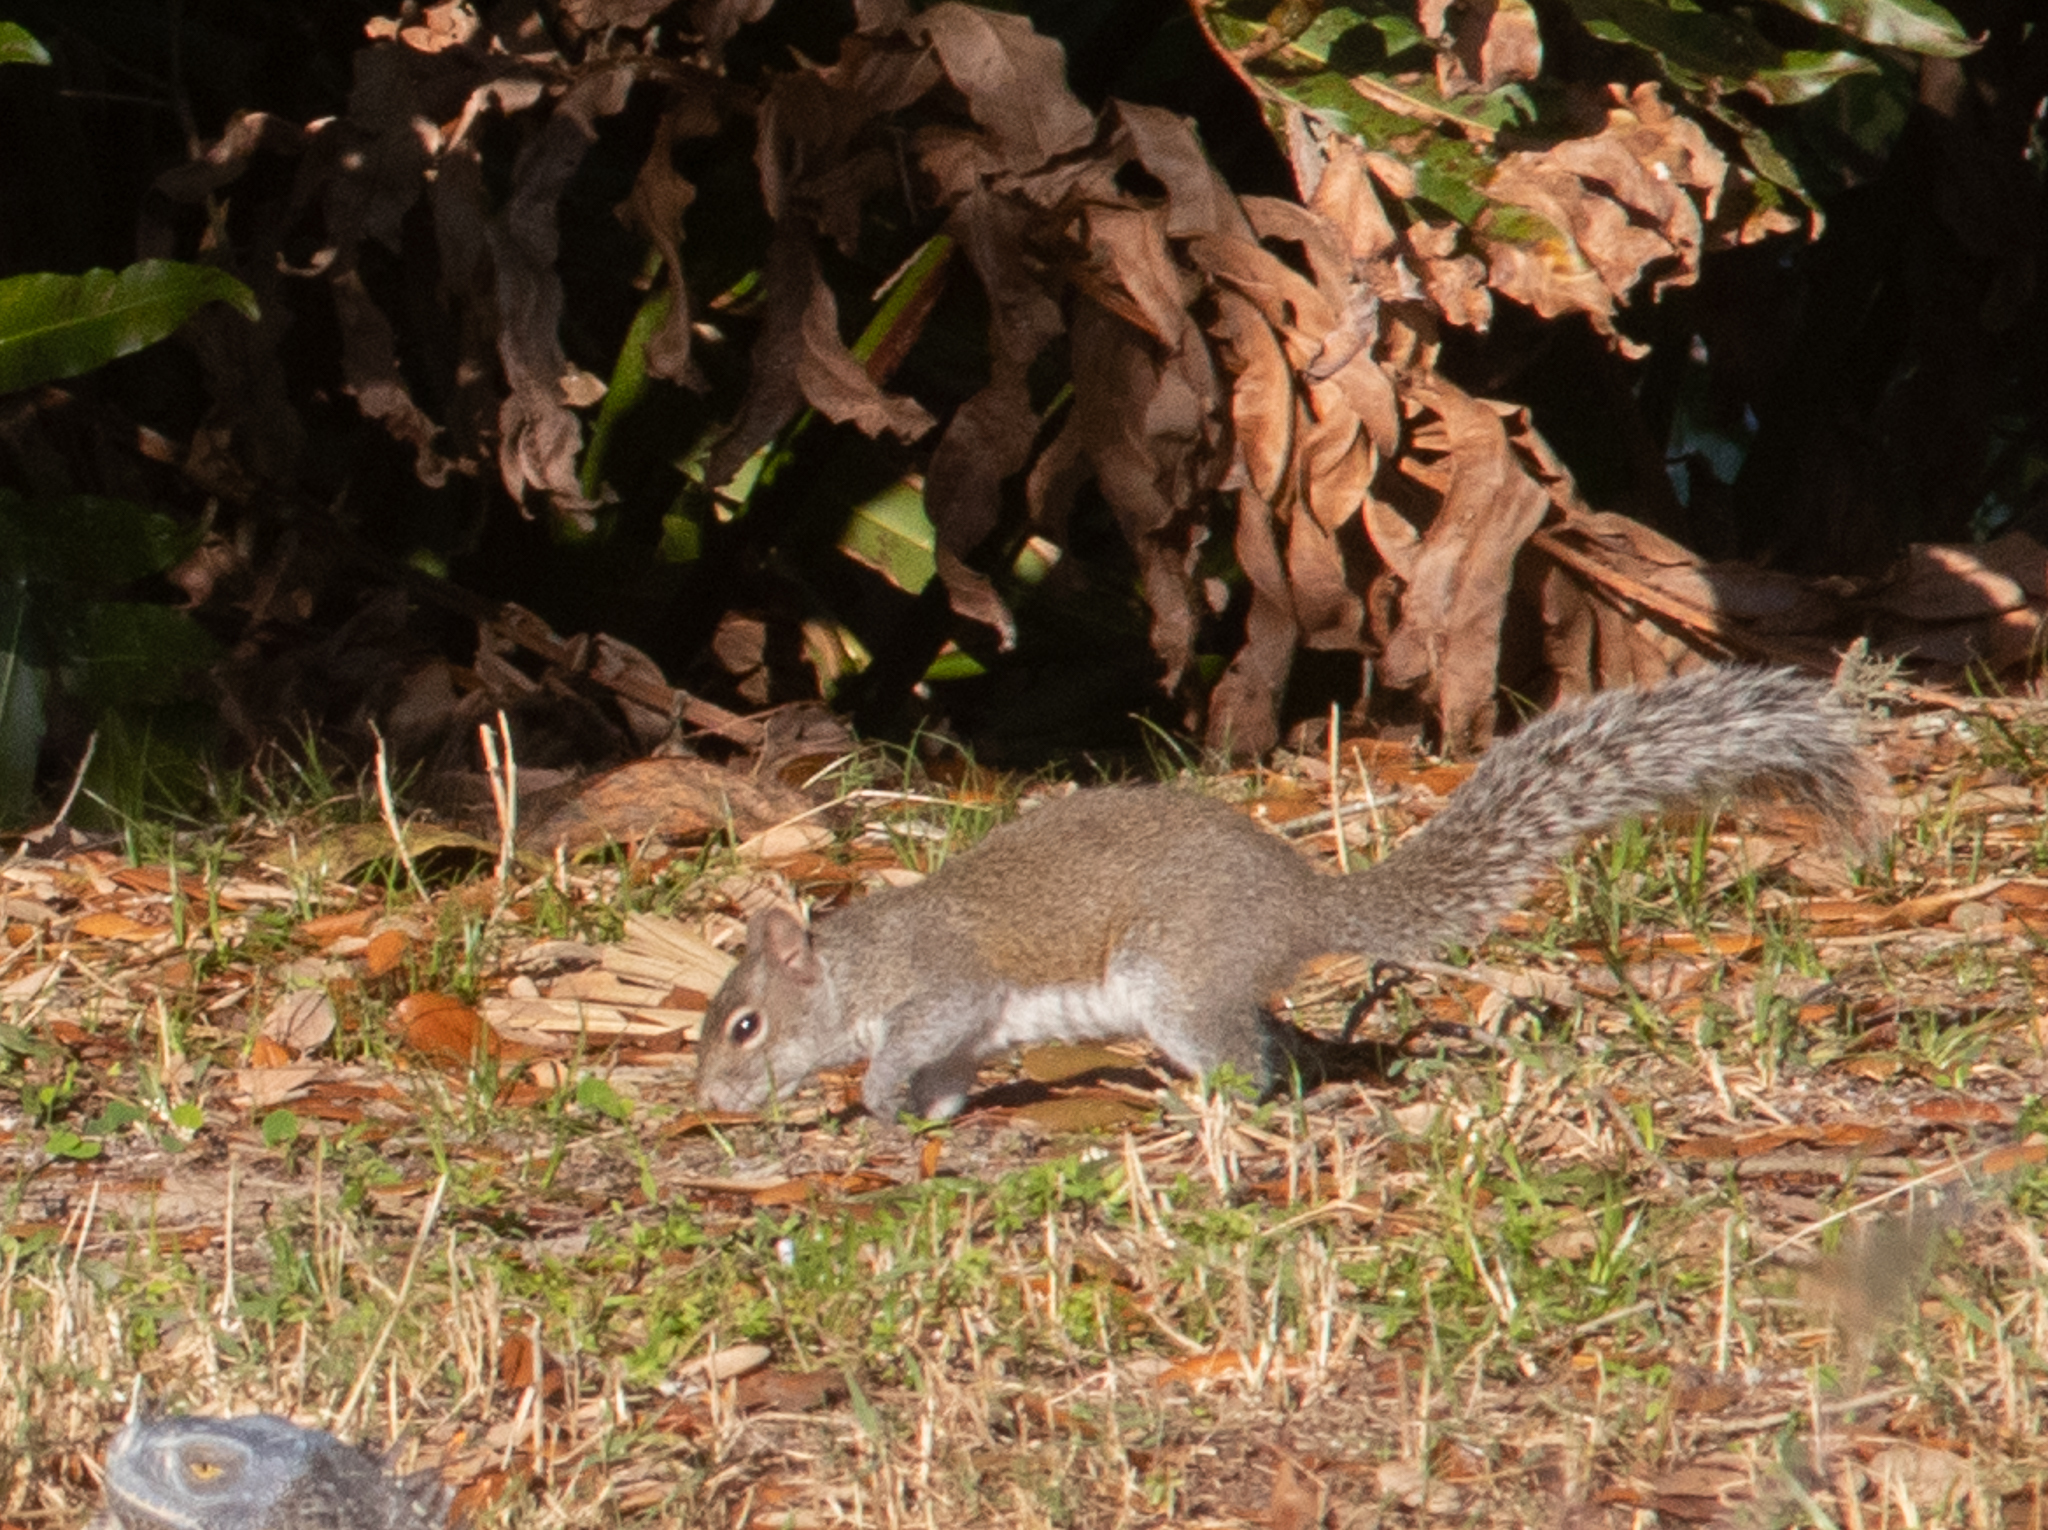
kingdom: Animalia
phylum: Chordata
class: Mammalia
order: Rodentia
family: Sciuridae
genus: Sciurus
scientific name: Sciurus carolinensis
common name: Eastern gray squirrel
